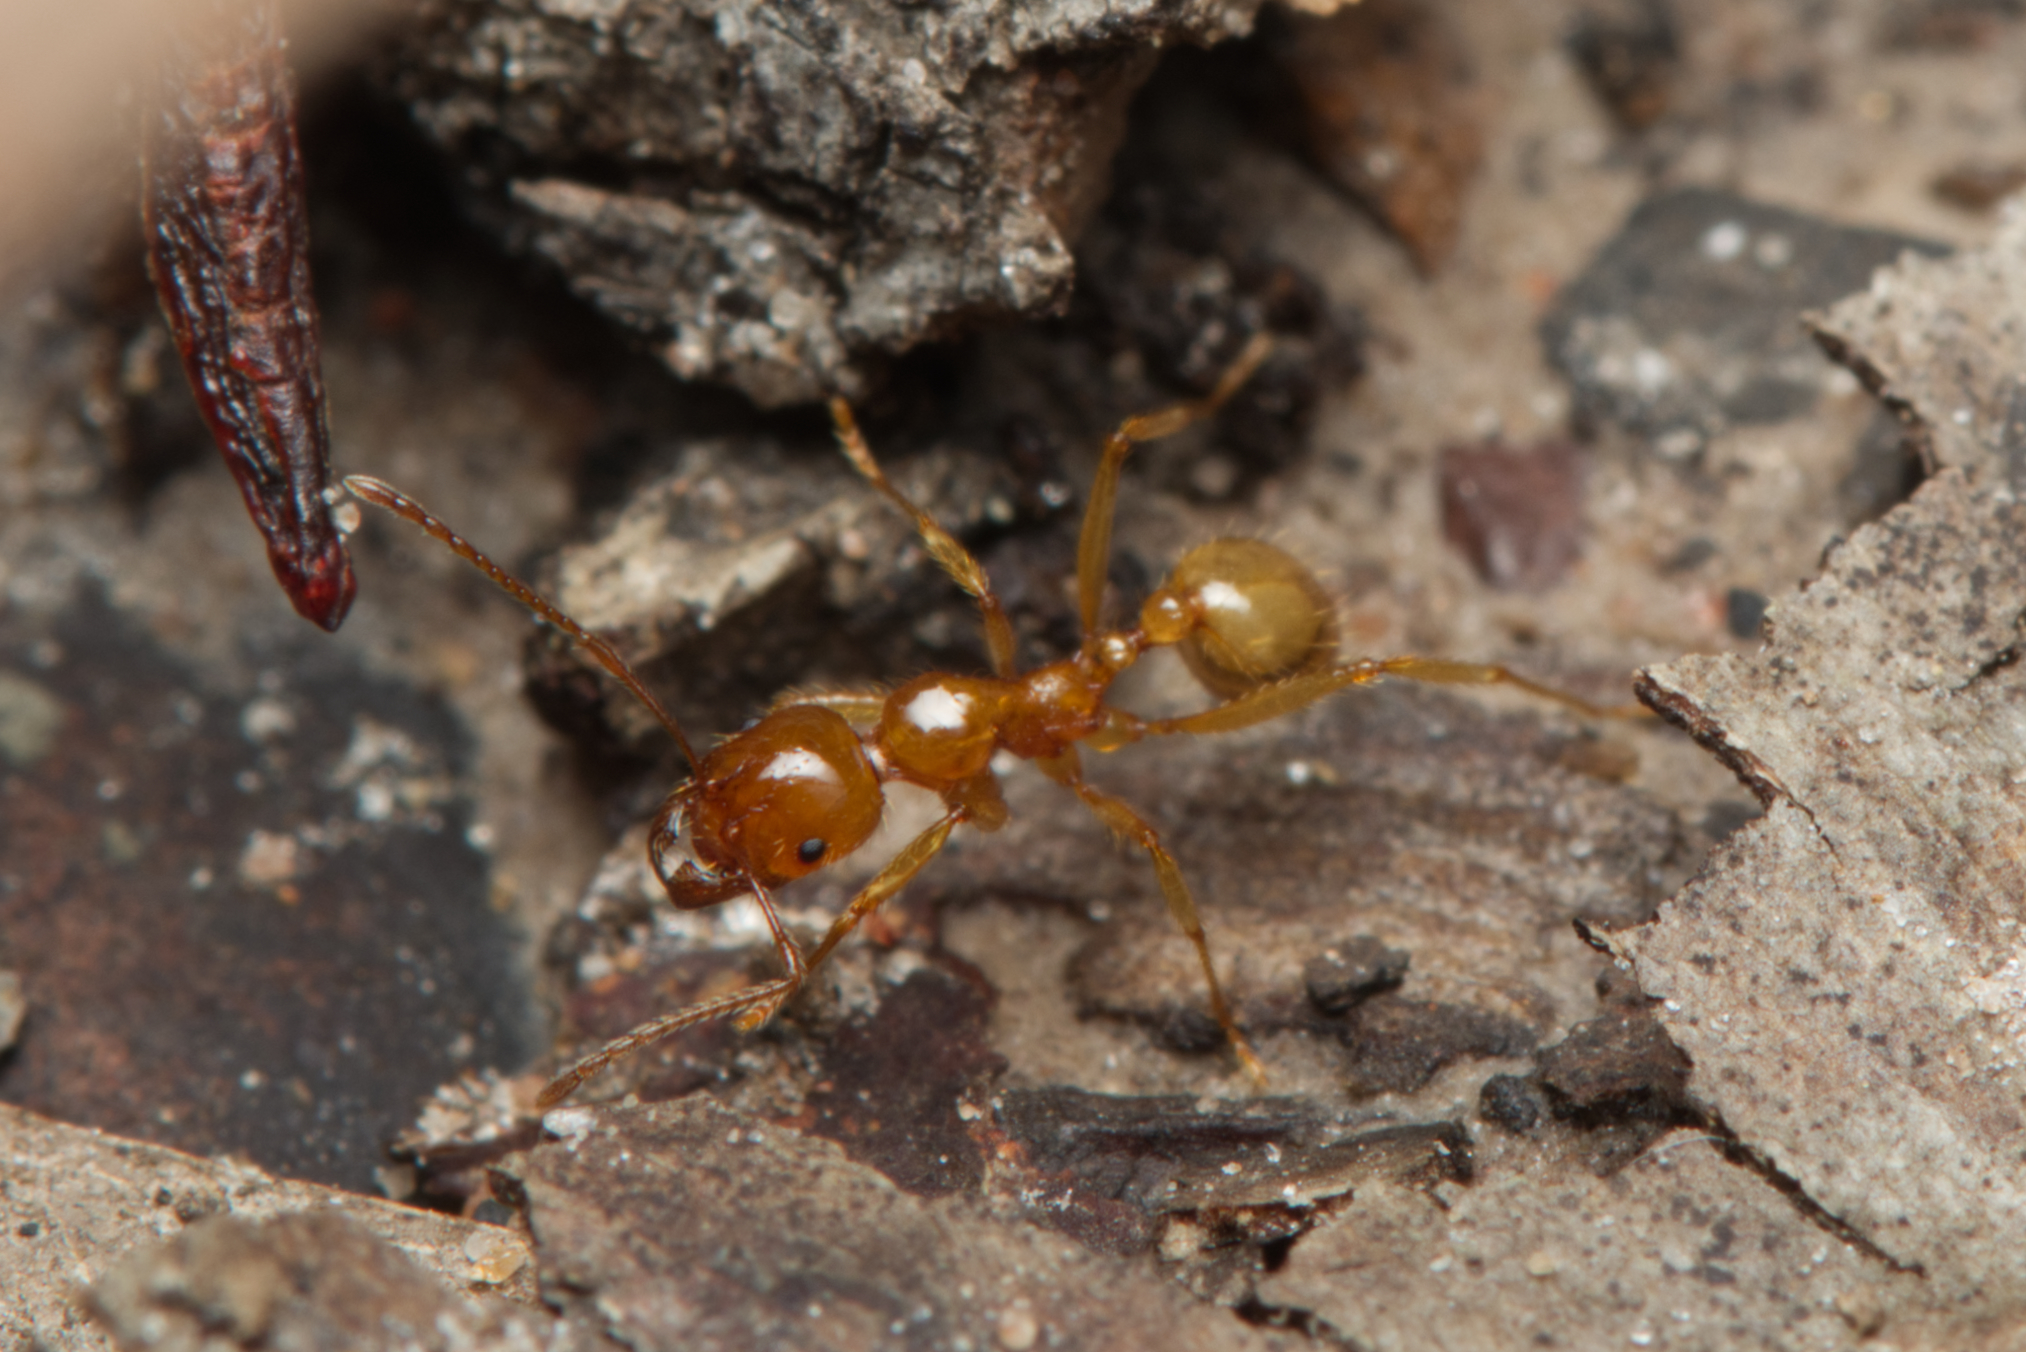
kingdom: Animalia
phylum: Arthropoda
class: Insecta
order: Hymenoptera
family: Formicidae
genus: Aphaenogaster
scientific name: Aphaenogaster pythia
